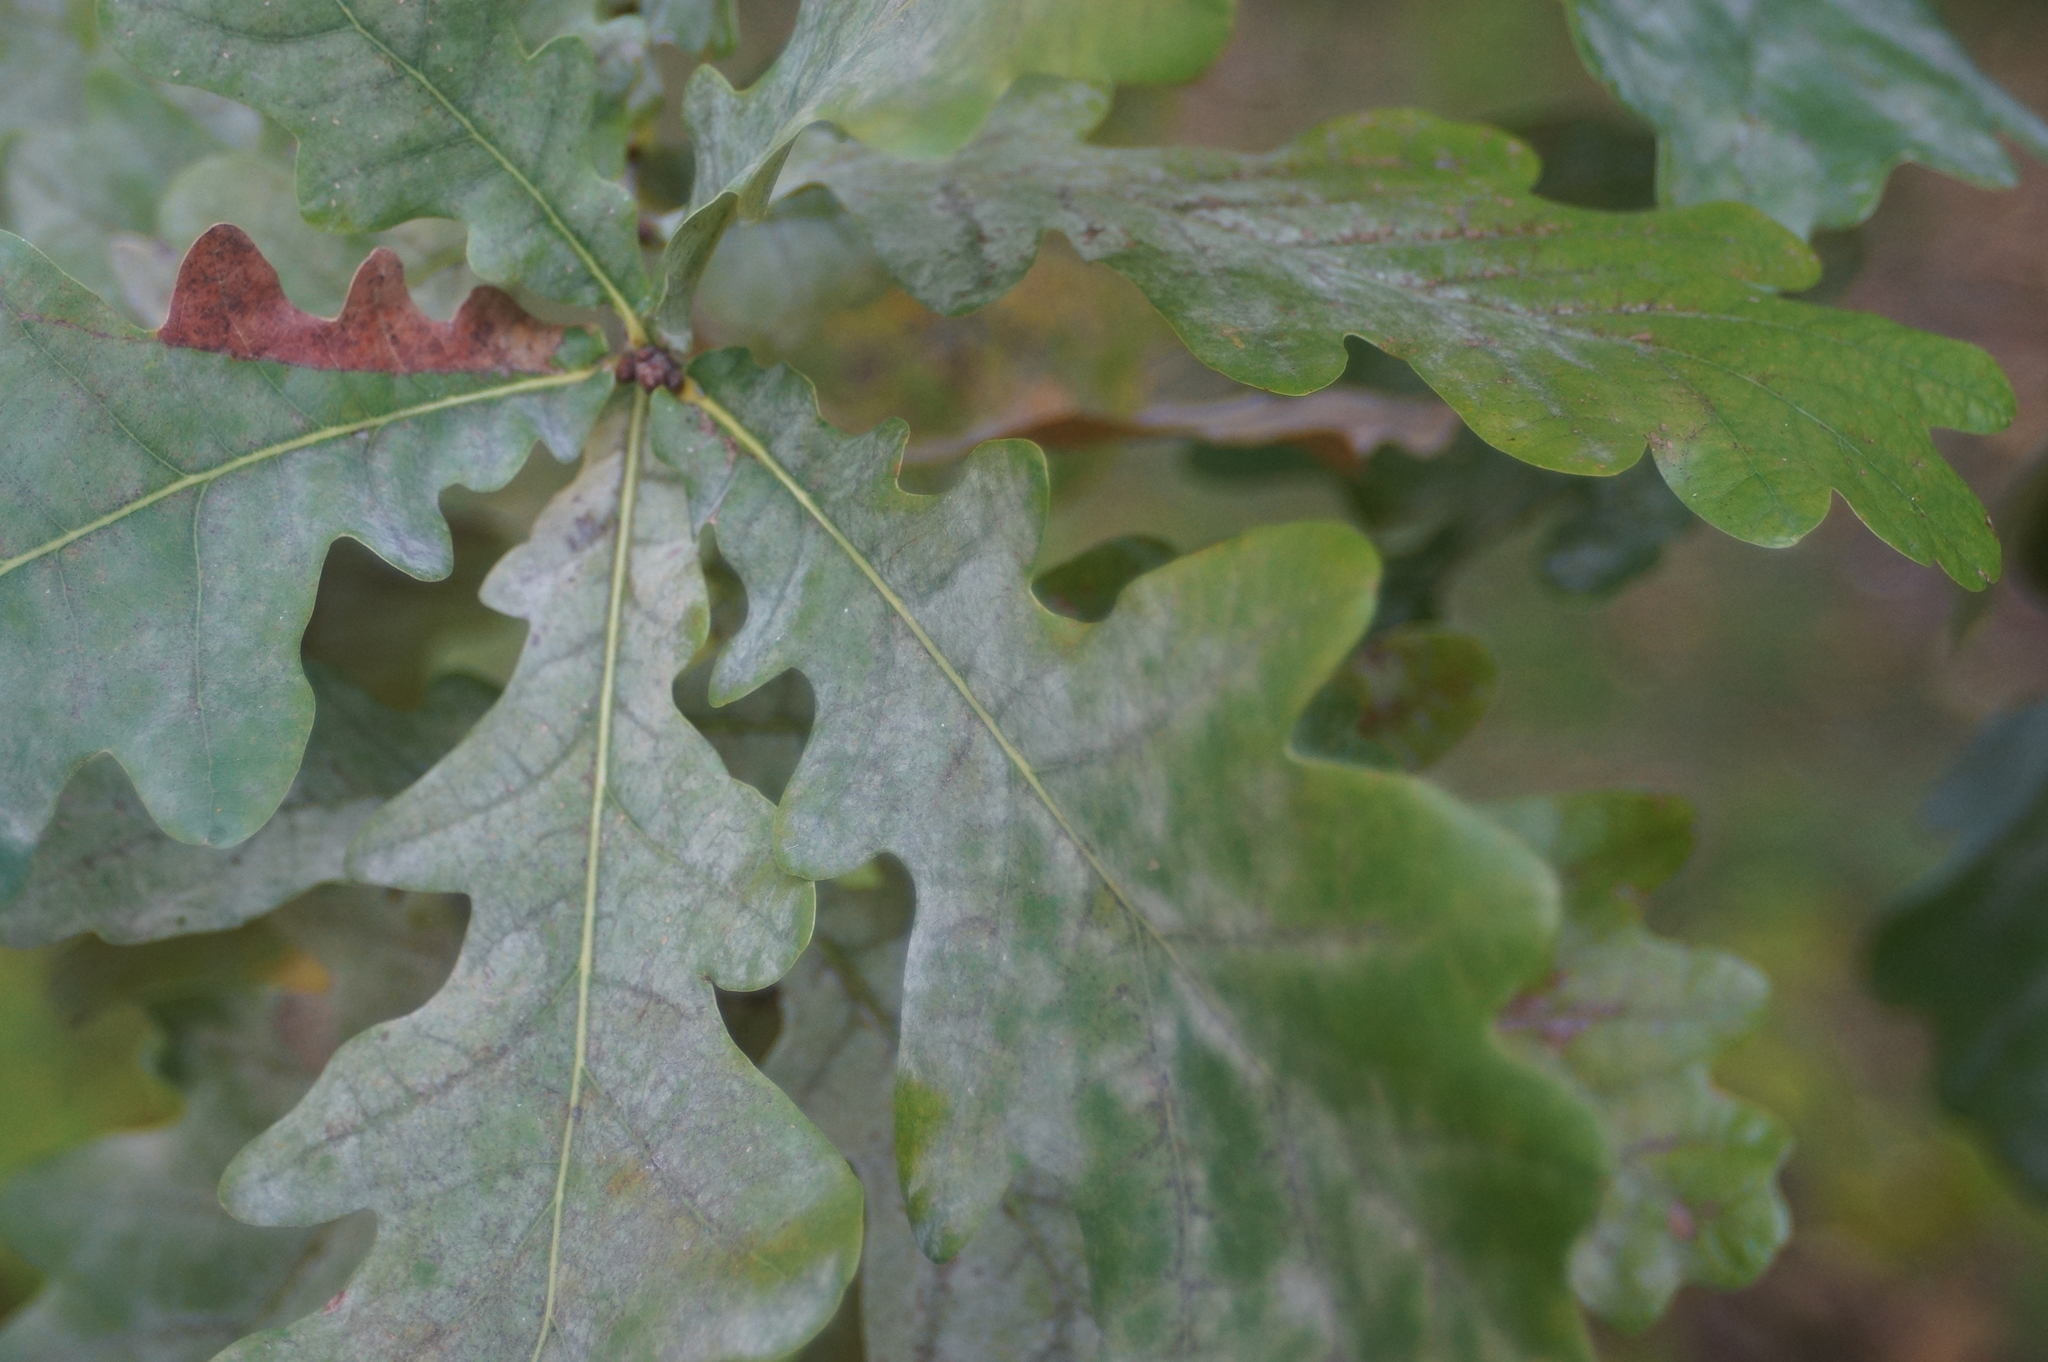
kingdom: Fungi
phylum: Ascomycota
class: Leotiomycetes
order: Helotiales
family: Erysiphaceae
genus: Erysiphe
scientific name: Erysiphe alphitoides
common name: Oak mildew
